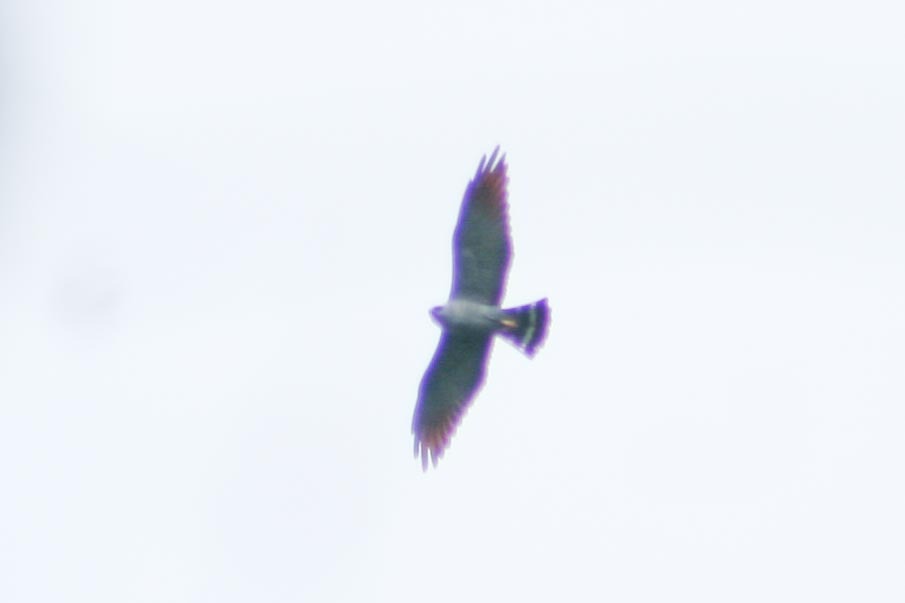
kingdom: Animalia
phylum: Chordata
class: Aves
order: Accipitriformes
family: Accipitridae
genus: Ictinia
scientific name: Ictinia plumbea
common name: Plumbeous kite
